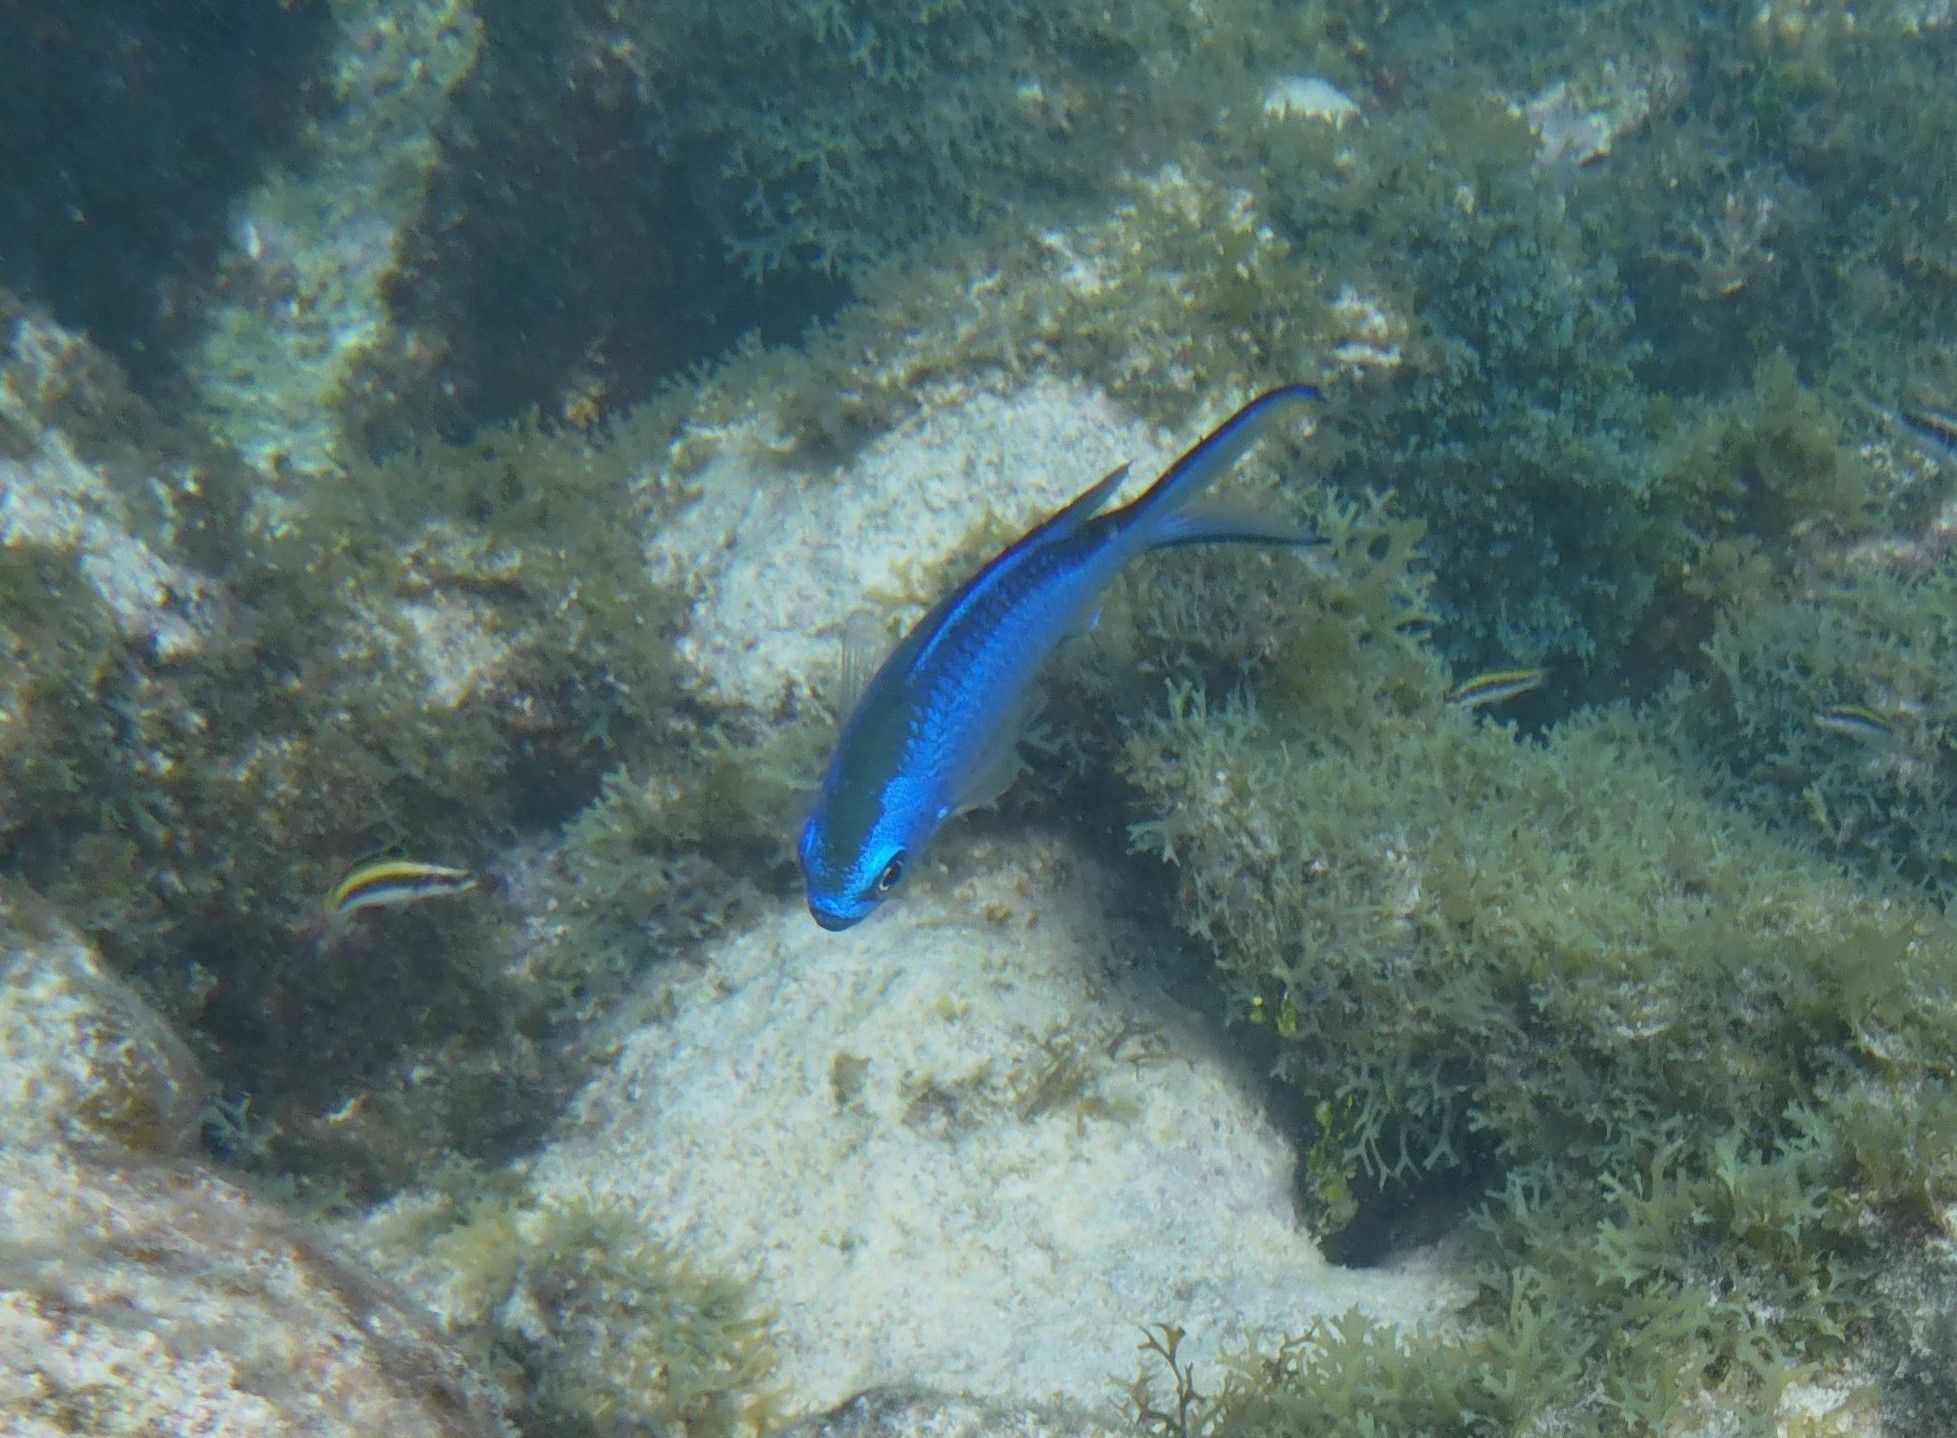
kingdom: Animalia
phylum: Chordata
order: Perciformes
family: Pomacentridae
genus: Chromis
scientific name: Chromis cyanea
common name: Blue chromis
